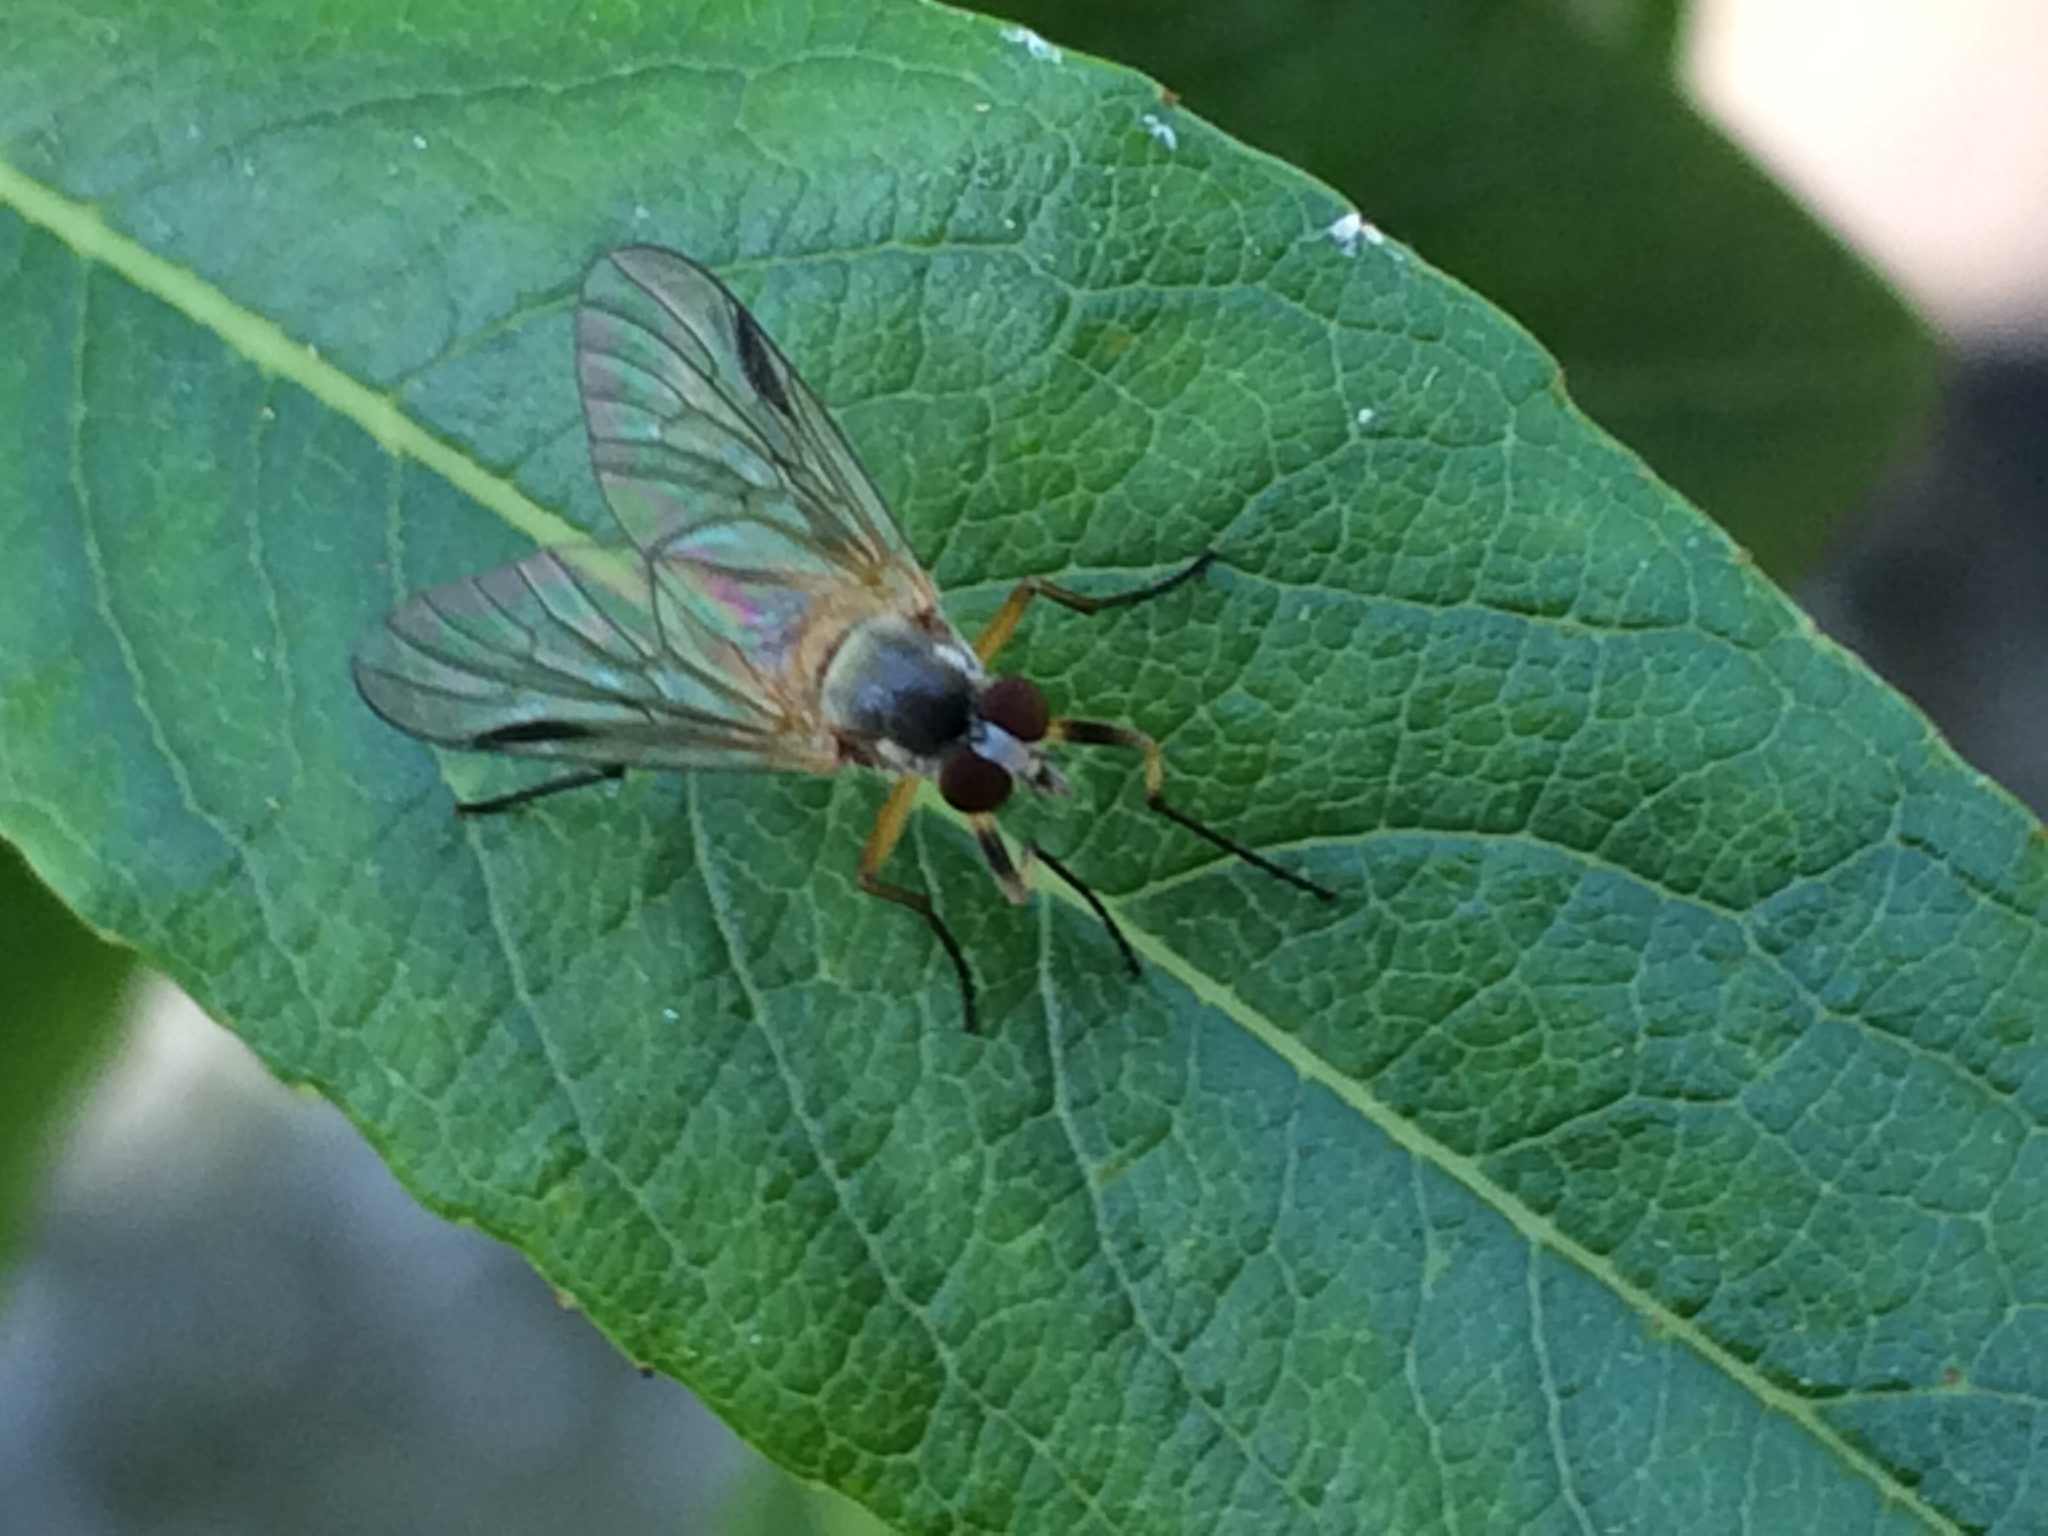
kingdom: Animalia
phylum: Arthropoda
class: Insecta
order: Diptera
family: Rhagionidae
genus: Rhagio
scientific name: Rhagio lineola
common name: Small fleck-winged snipefly
